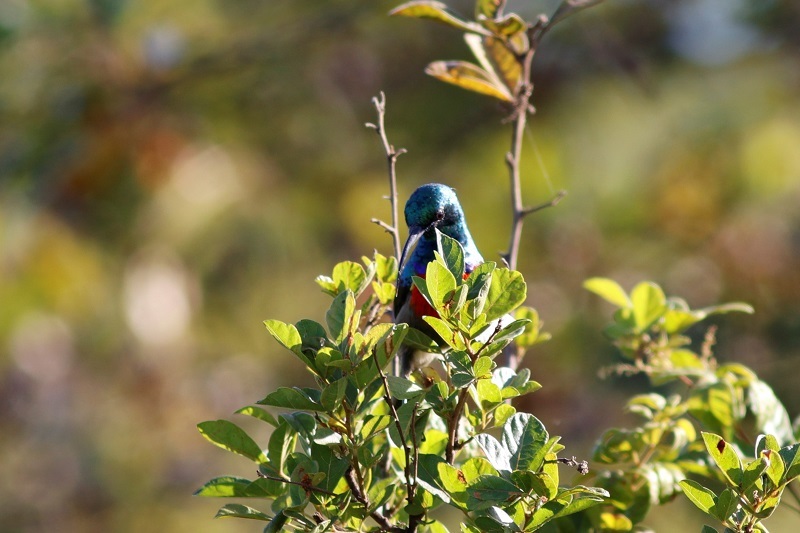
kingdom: Animalia
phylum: Chordata
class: Aves
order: Passeriformes
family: Nectariniidae
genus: Cinnyris
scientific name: Cinnyris afer
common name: Greater double-collared sunbird
